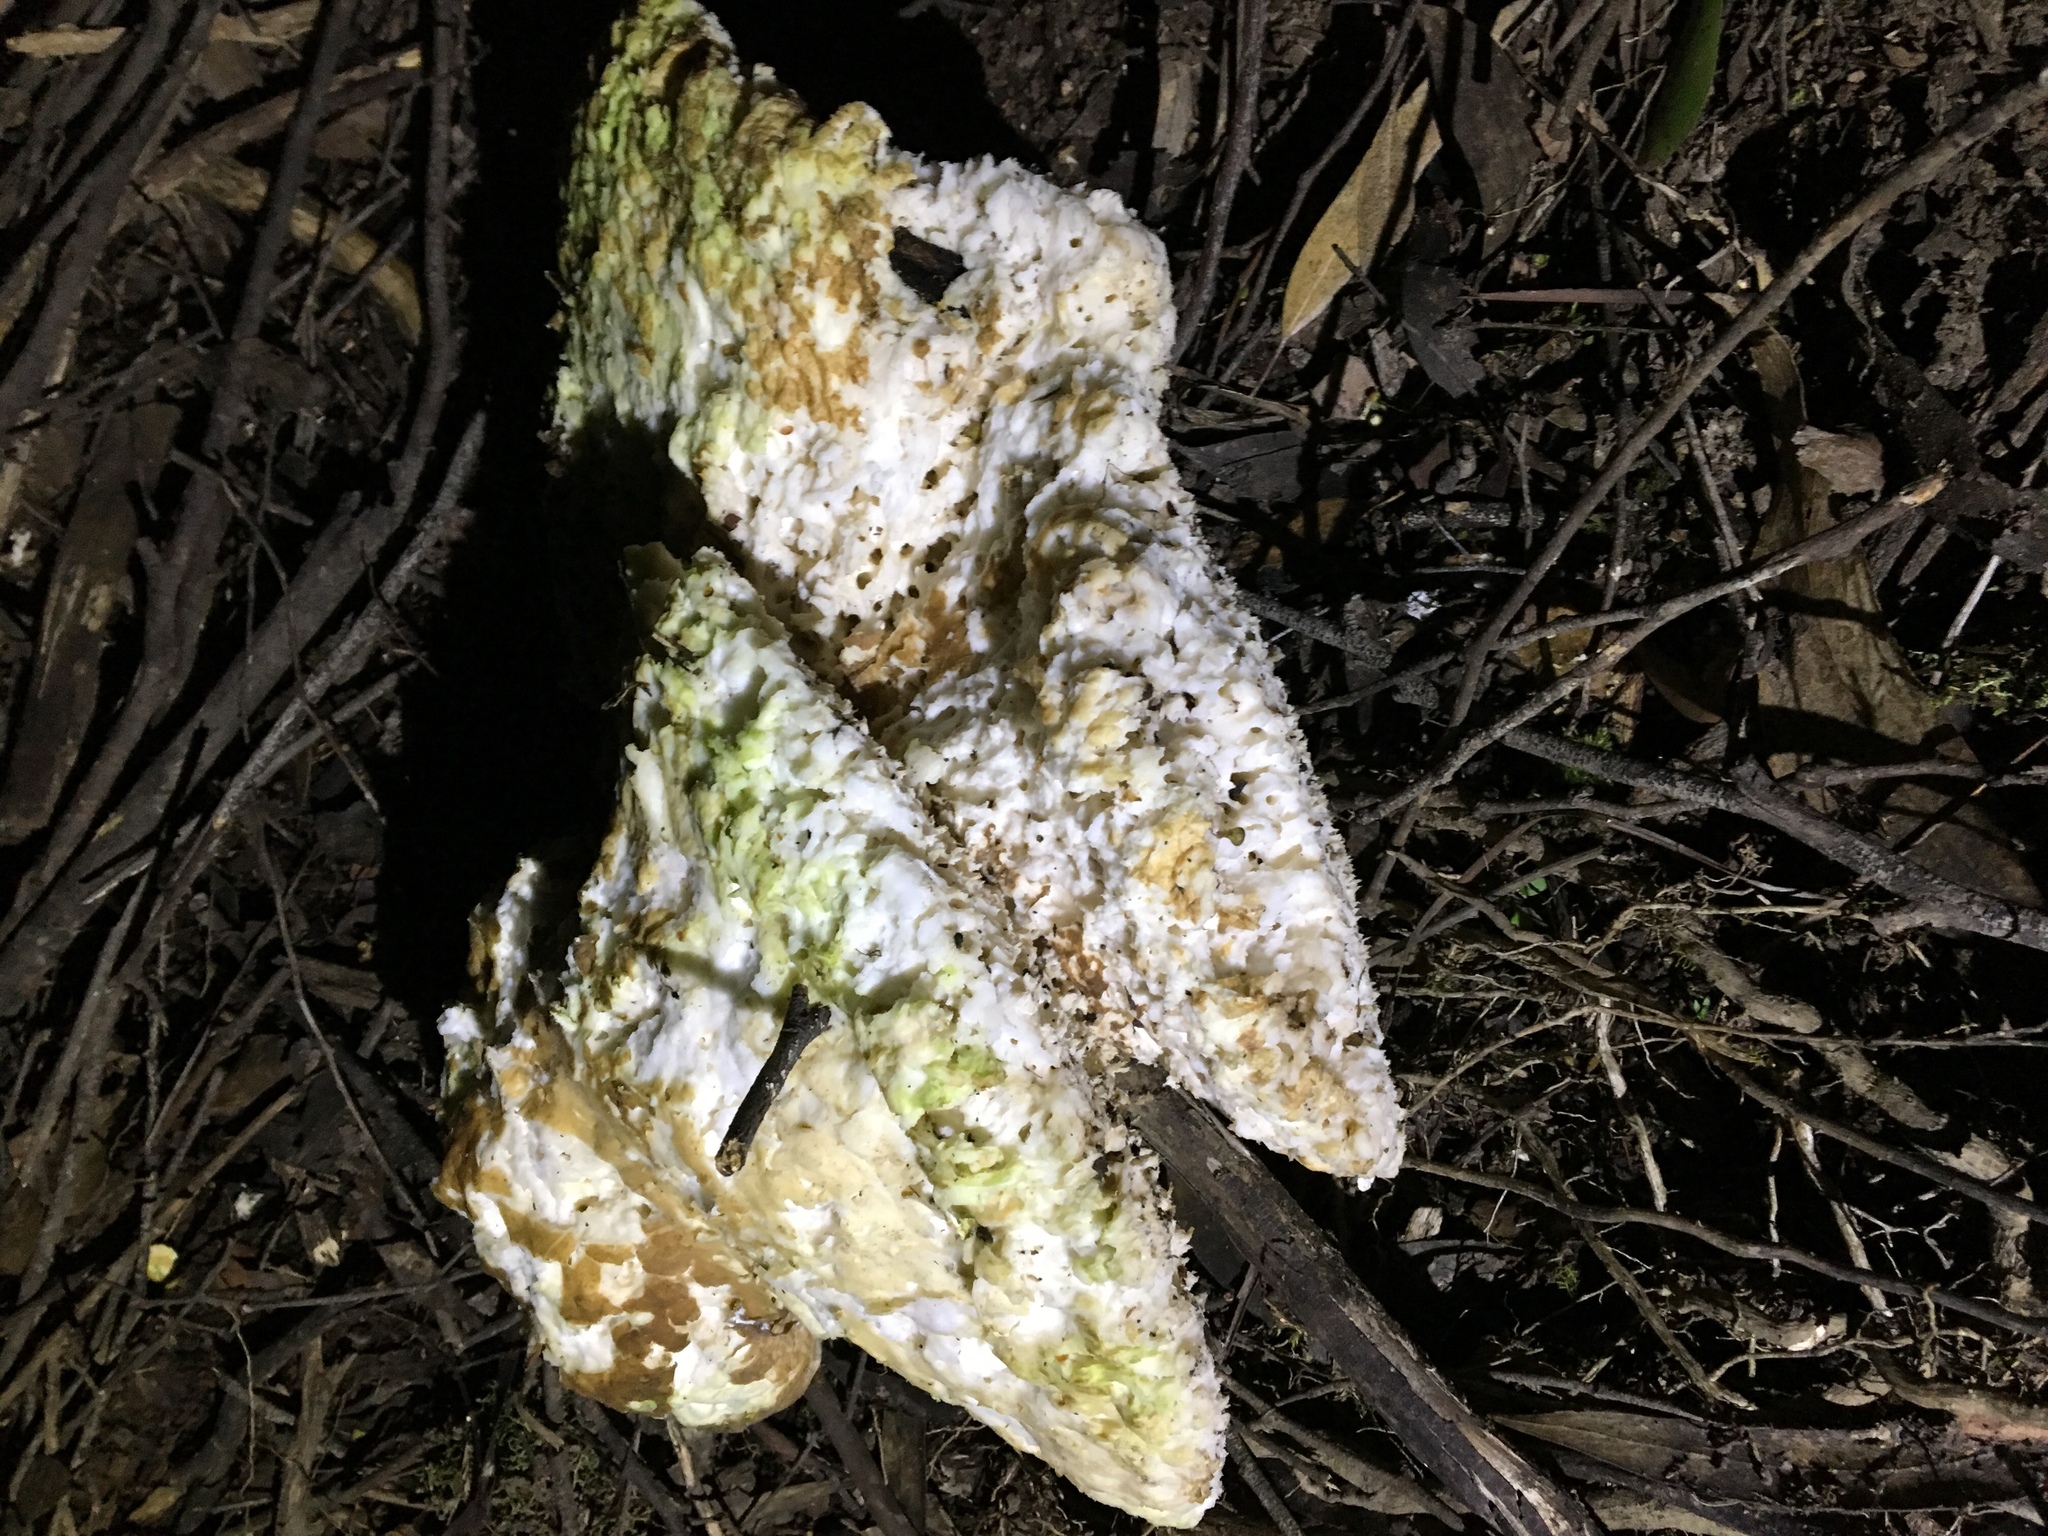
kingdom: Fungi
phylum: Basidiomycota
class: Agaricomycetes
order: Polyporales
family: Laetiporaceae
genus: Laetiporus
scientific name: Laetiporus portentosus
